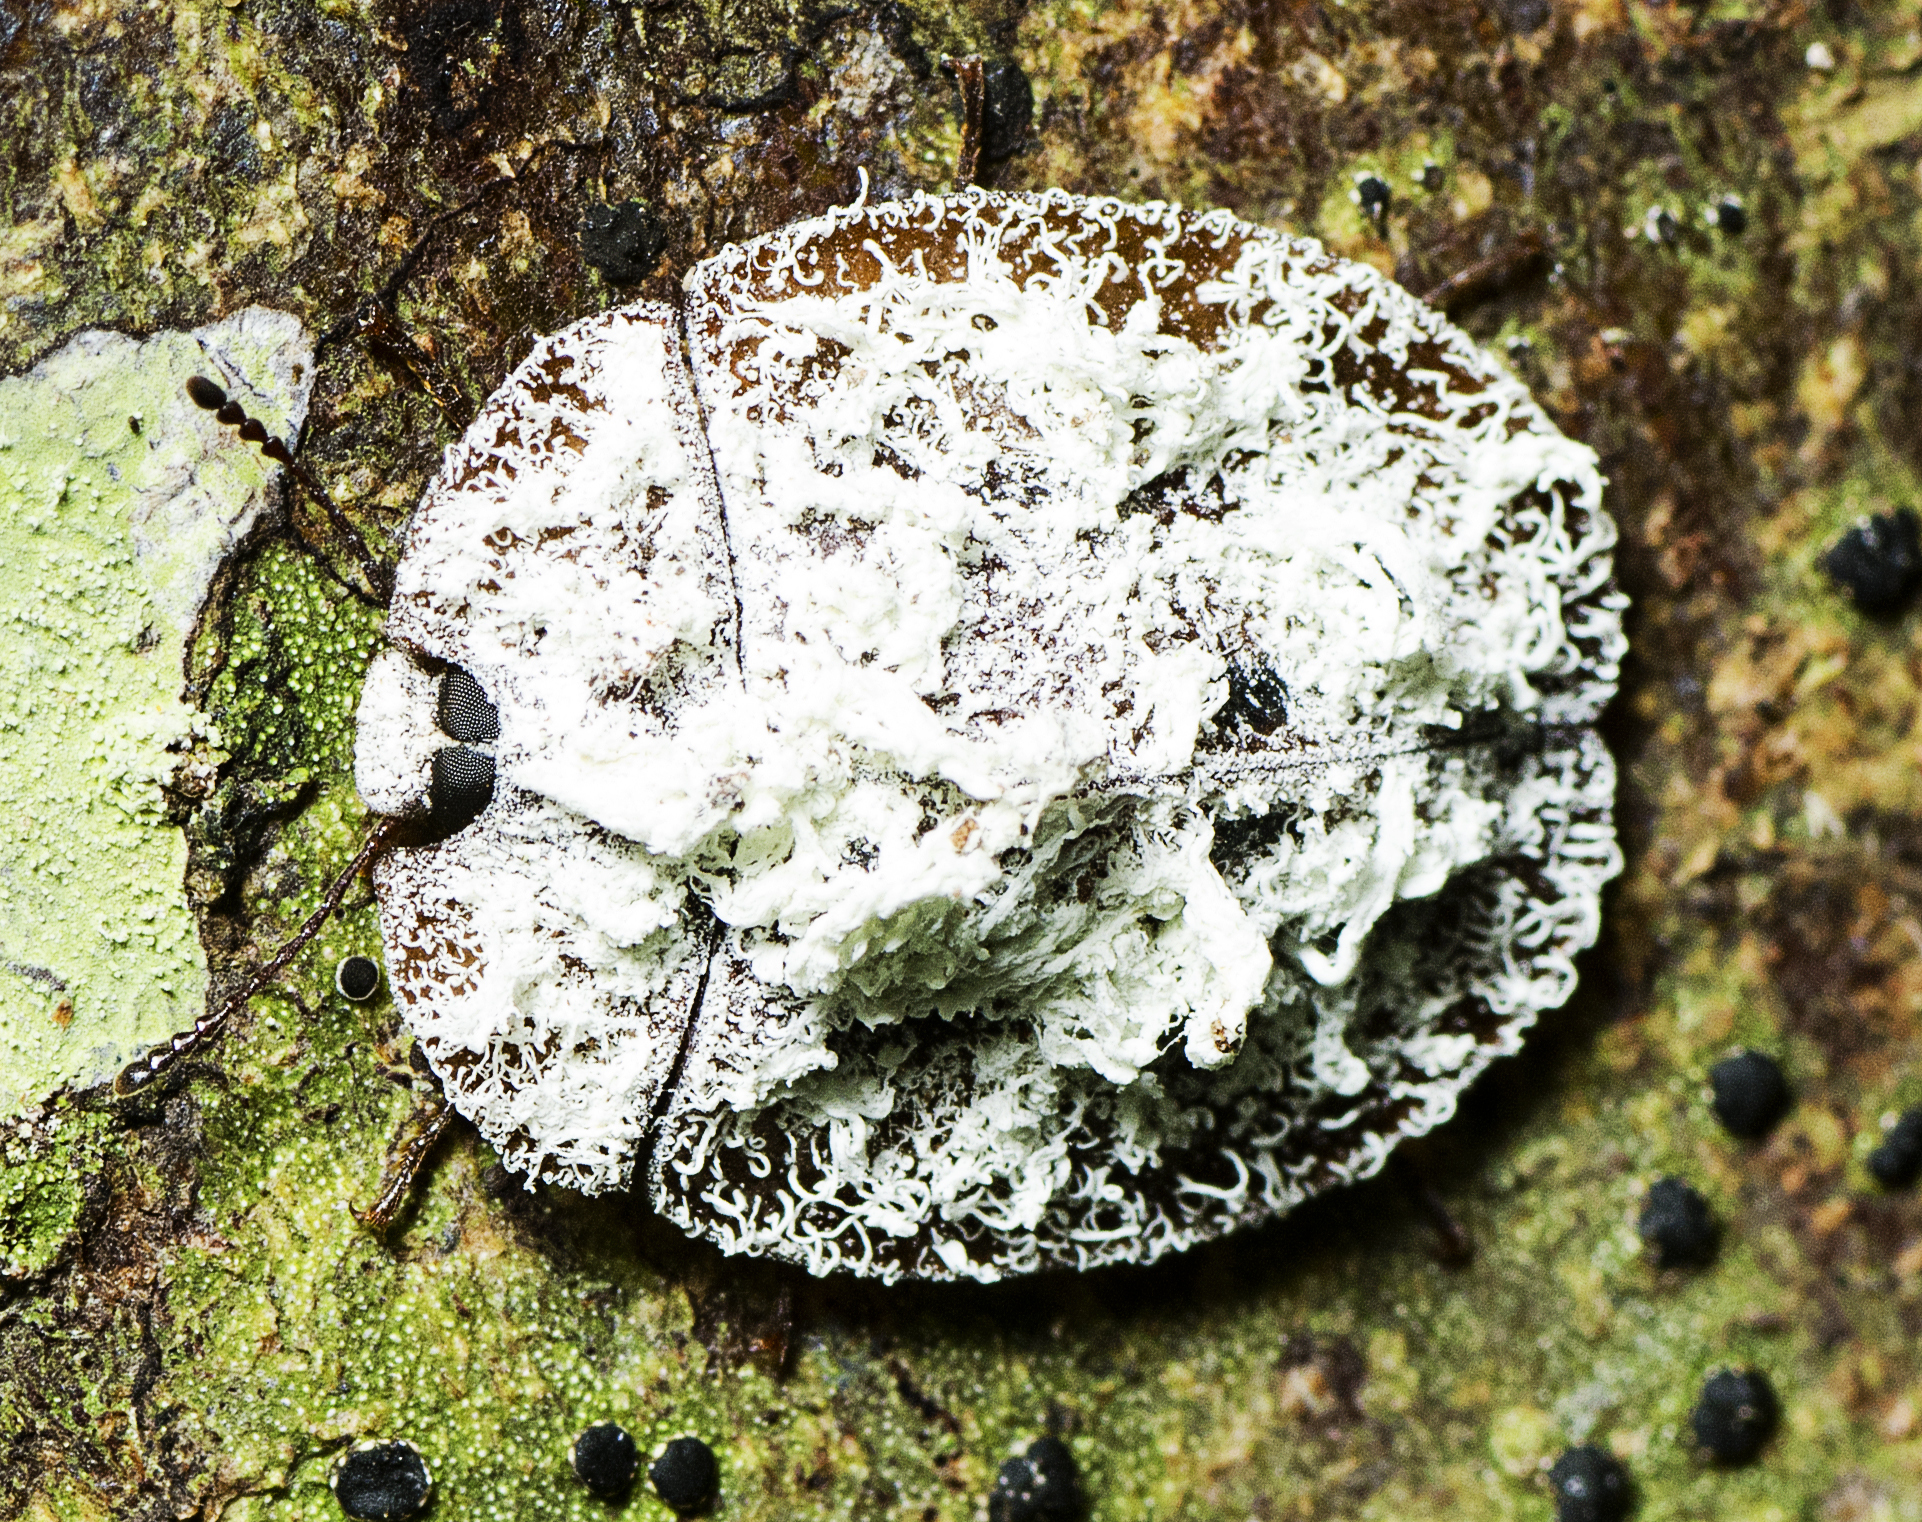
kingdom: Animalia
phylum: Arthropoda
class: Insecta
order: Coleoptera
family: Tenebrionidae
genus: Emcephalus
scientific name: Emcephalus
